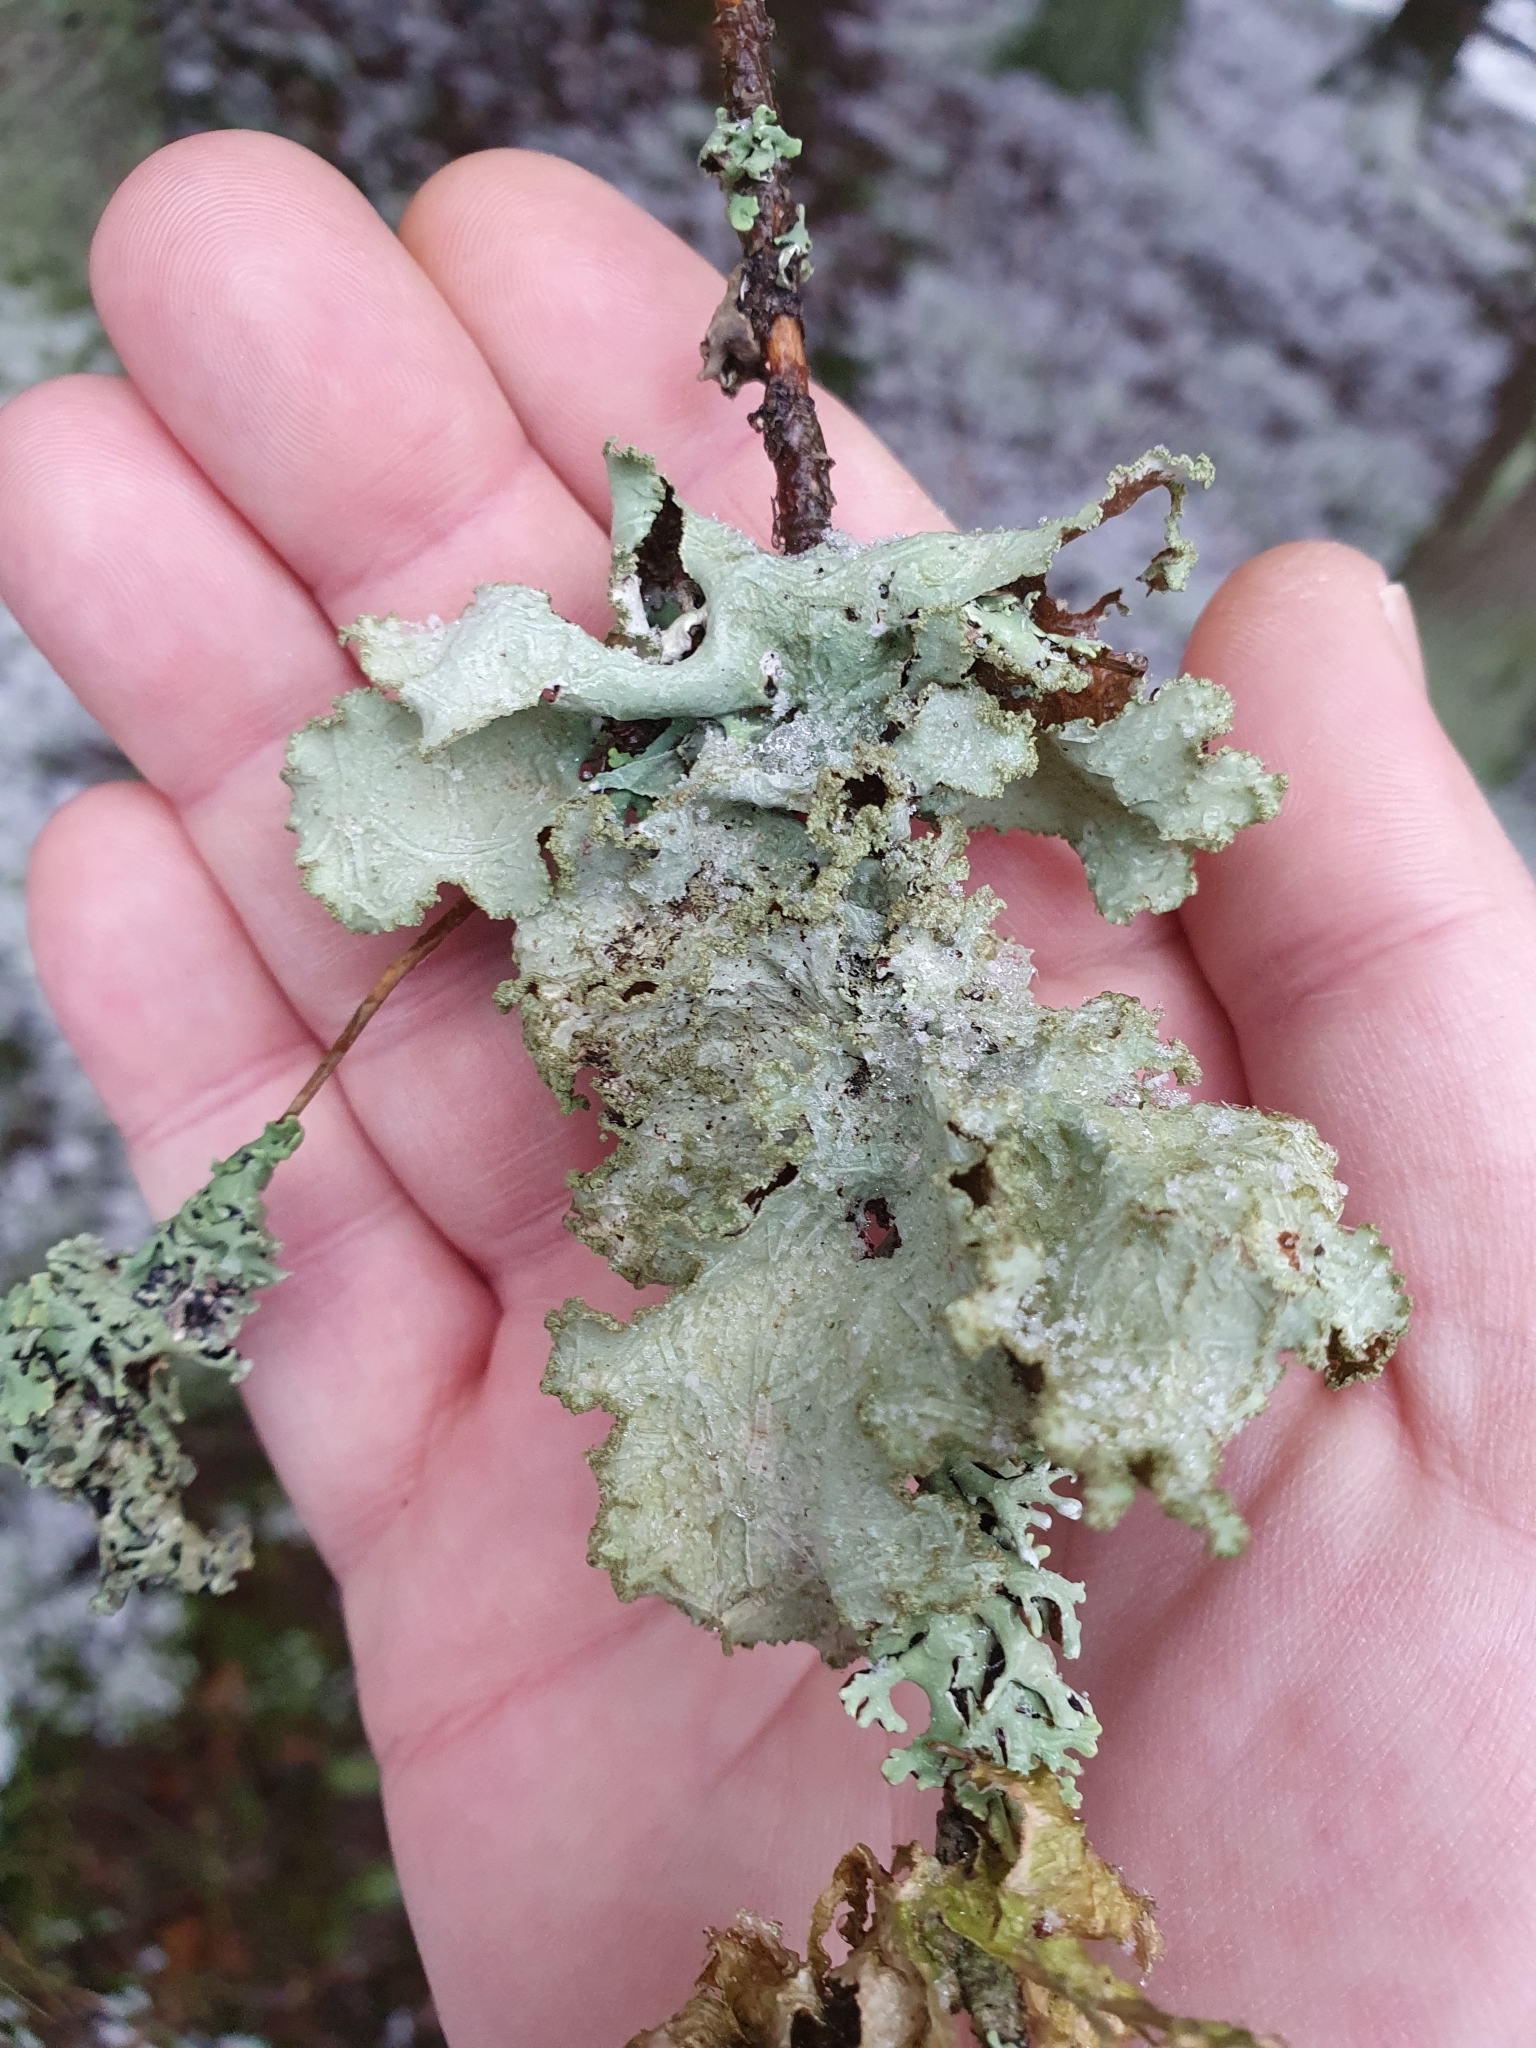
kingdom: Fungi
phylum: Ascomycota
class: Lecanoromycetes
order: Lecanorales
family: Parmeliaceae
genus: Platismatia
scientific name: Platismatia glauca
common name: Varied rag lichen
